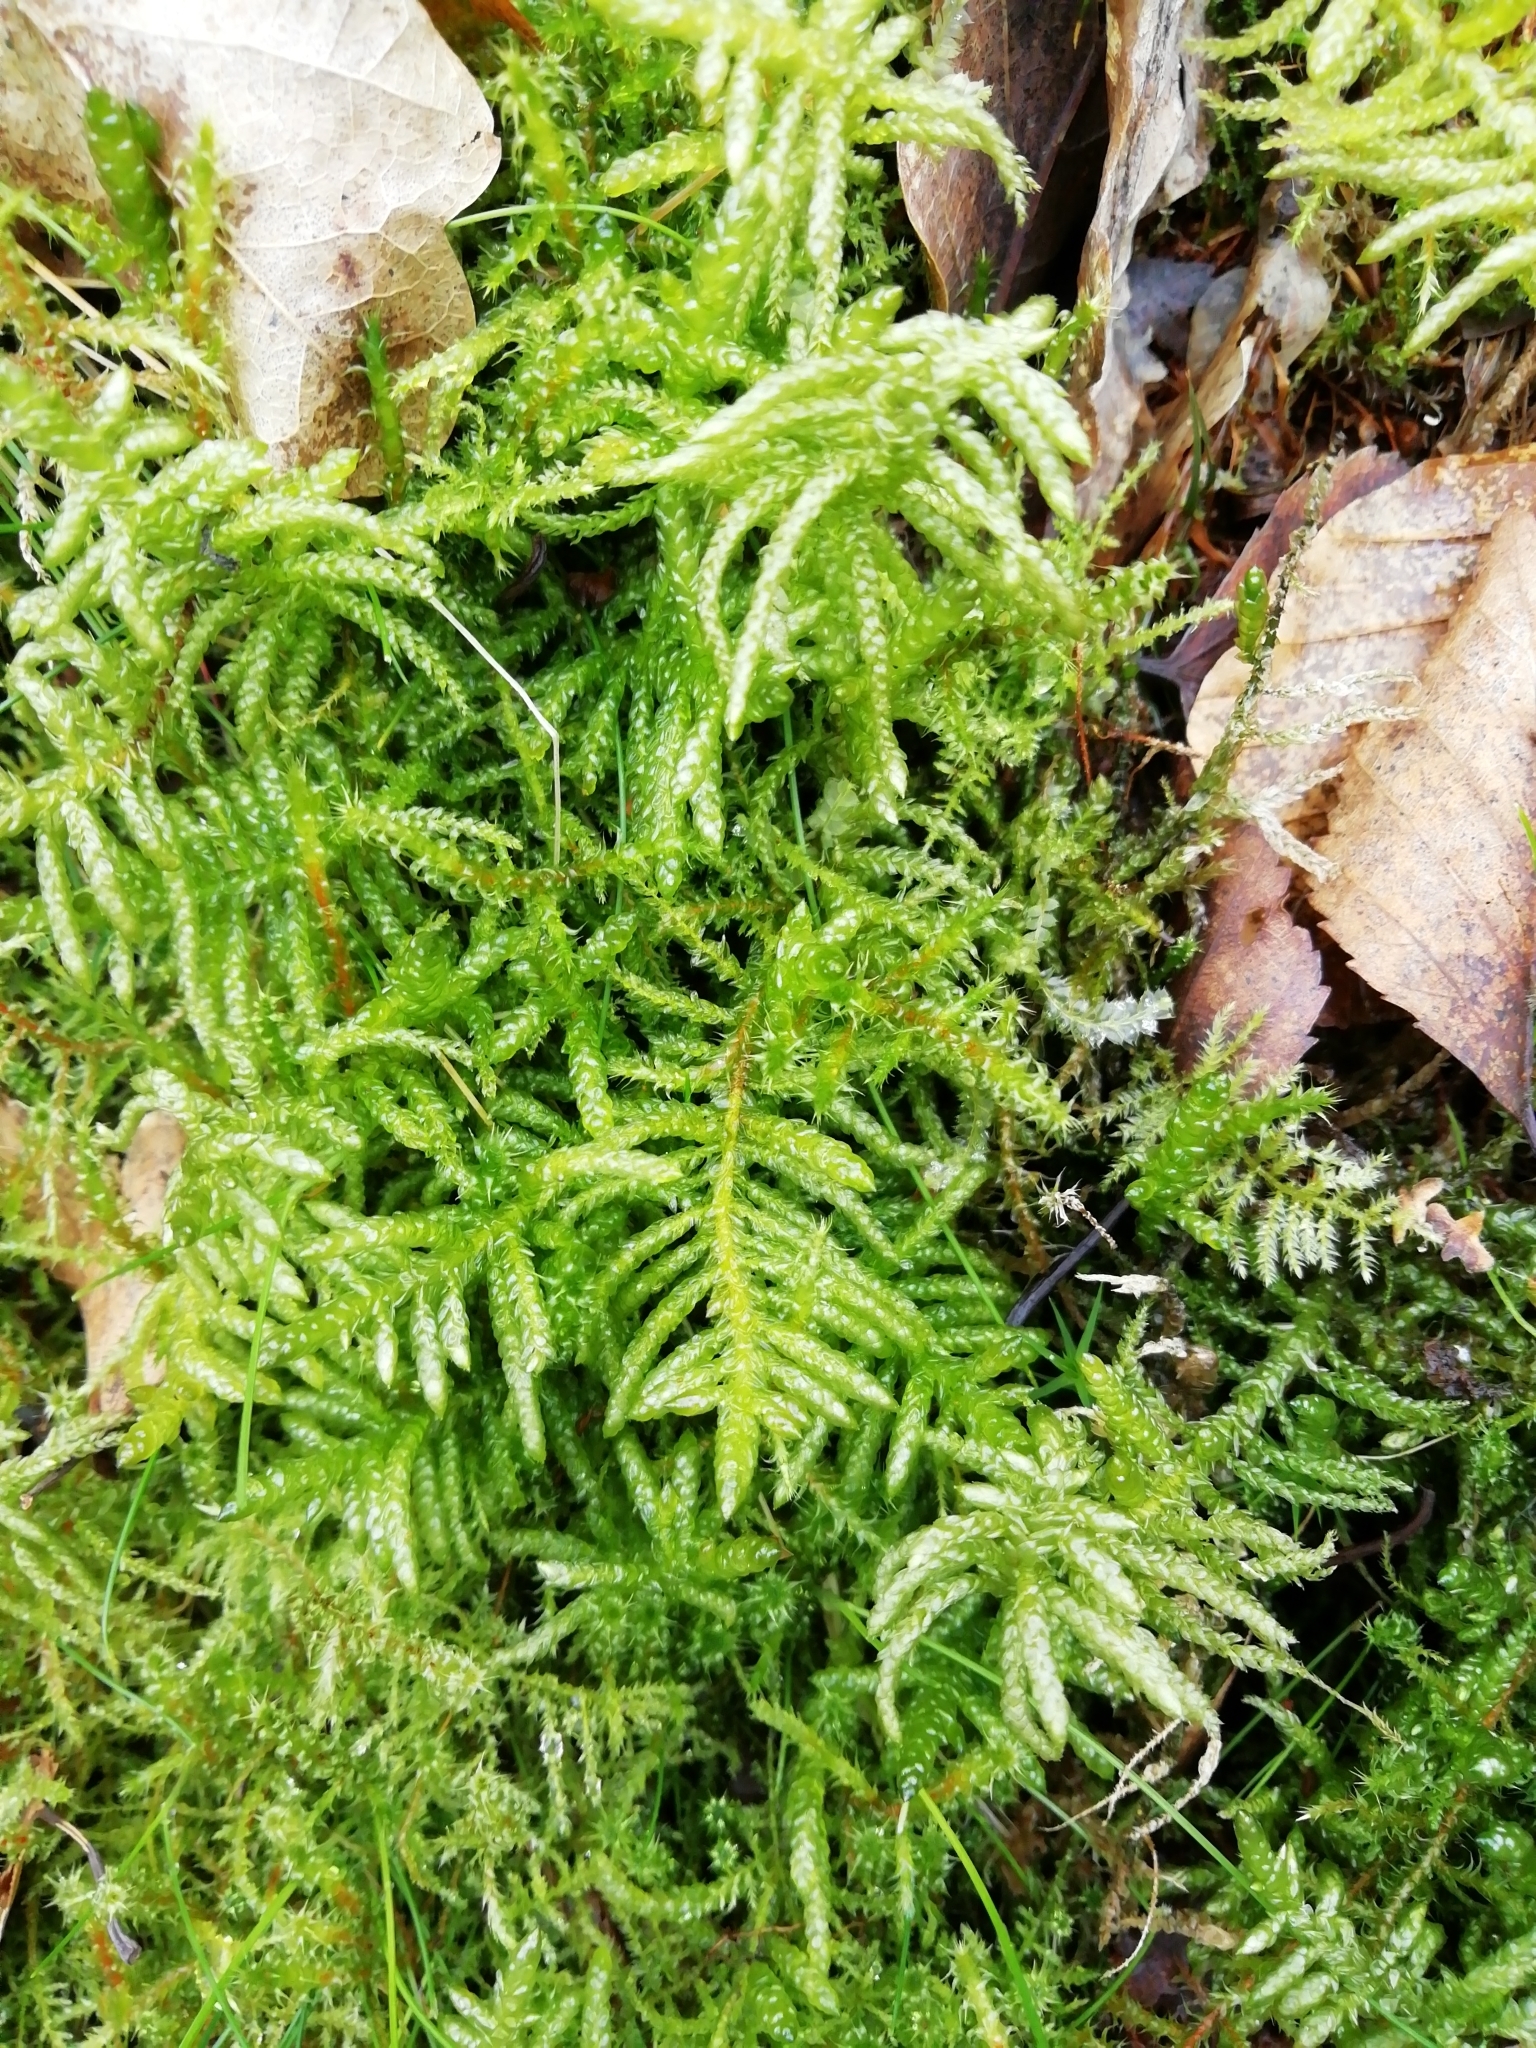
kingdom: Plantae
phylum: Bryophyta
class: Bryopsida
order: Hypnales
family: Brachytheciaceae
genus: Pseudoscleropodium
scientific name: Pseudoscleropodium purum
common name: Neat feather-moss
